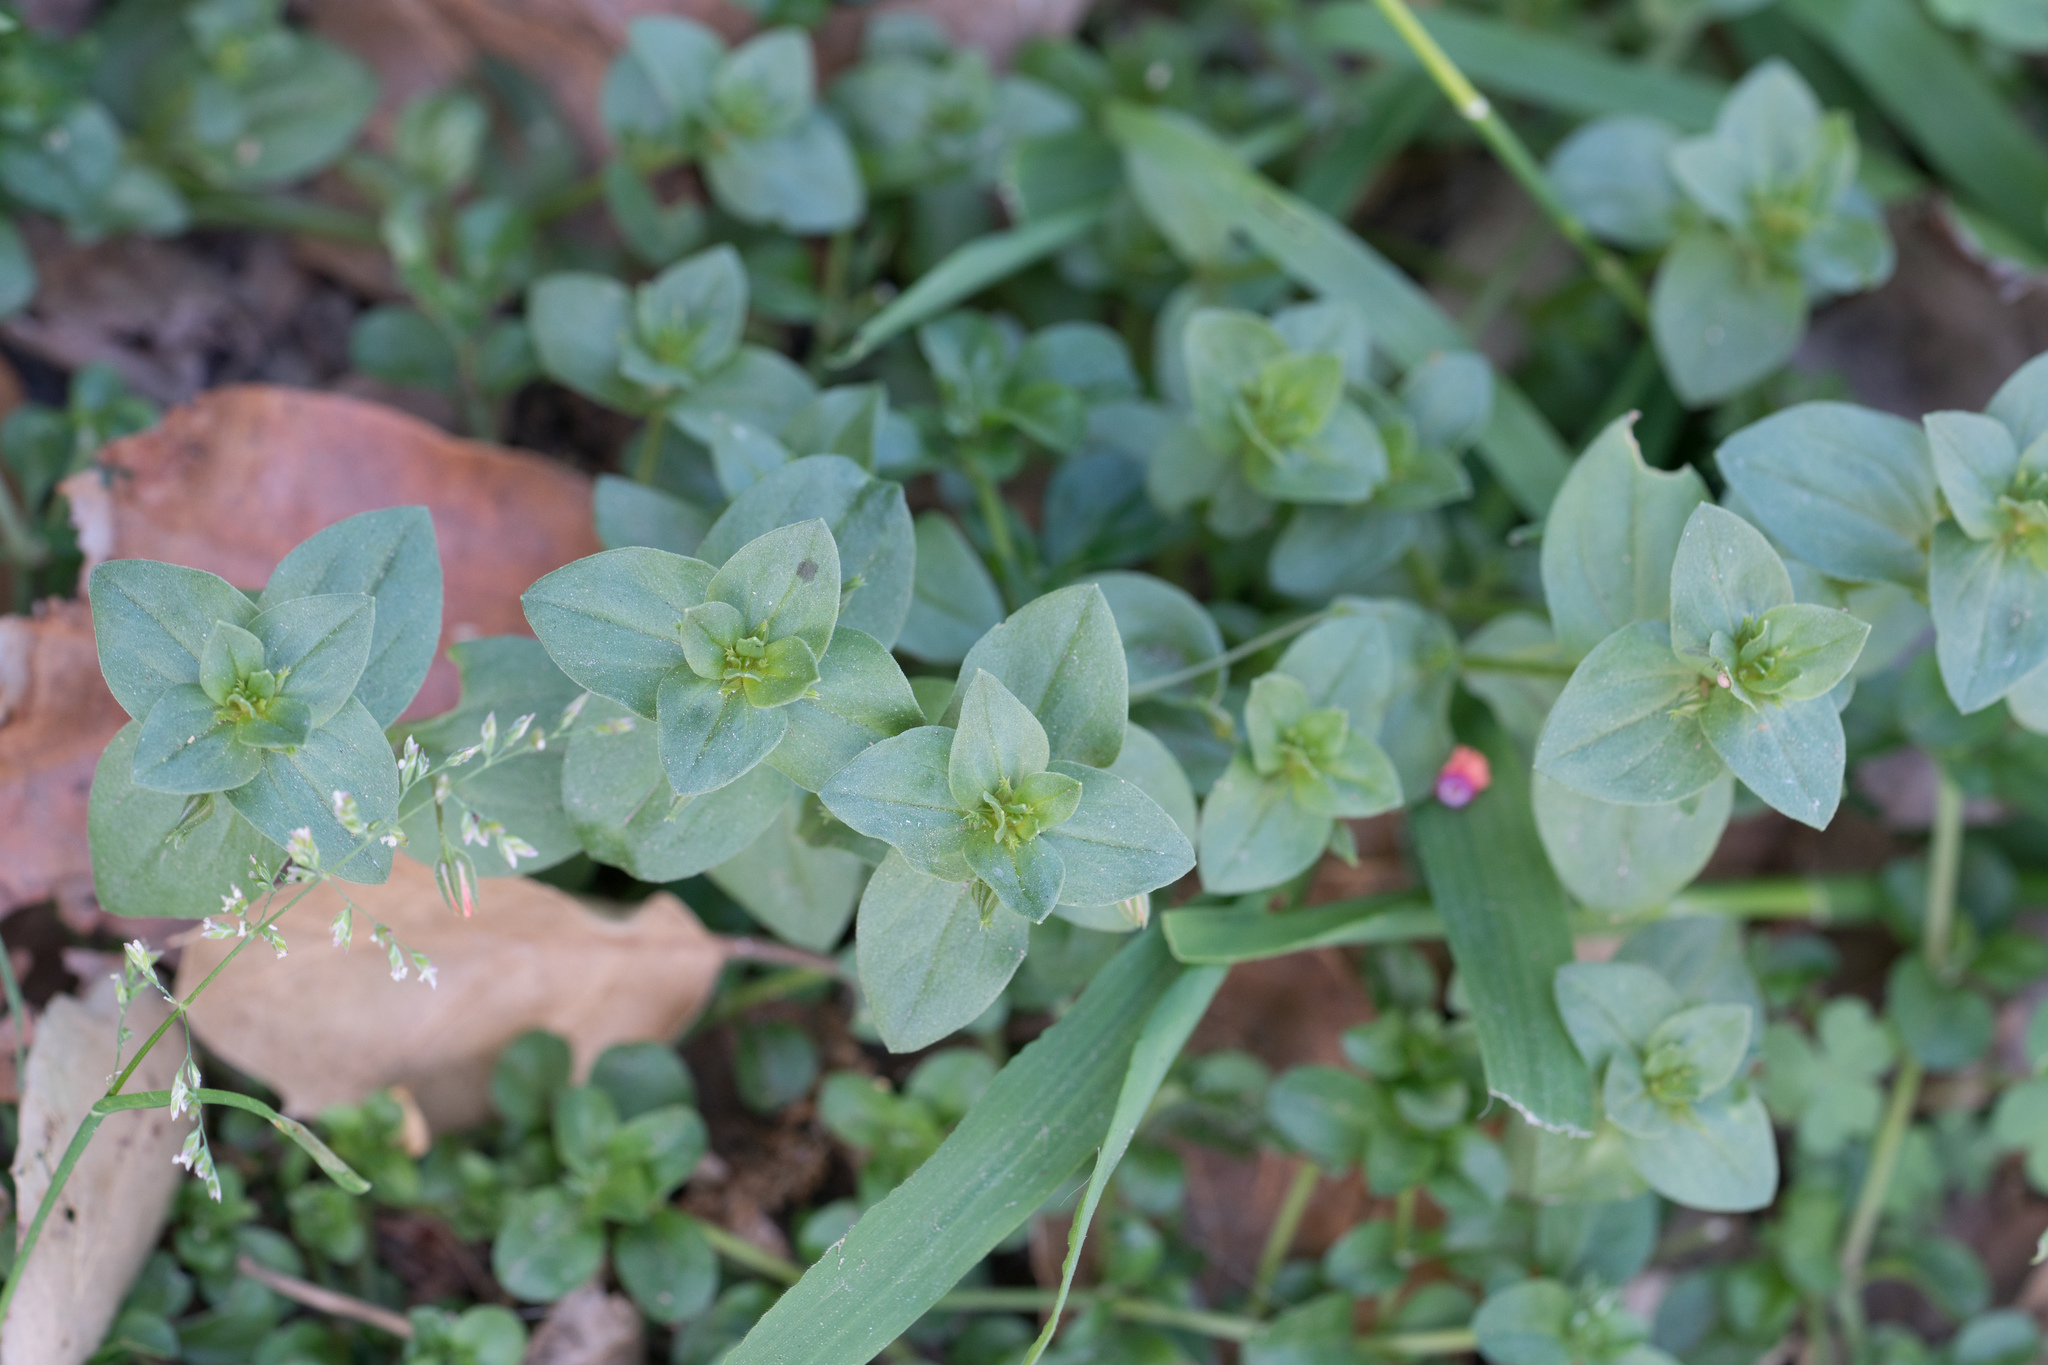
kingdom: Plantae
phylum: Tracheophyta
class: Magnoliopsida
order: Ericales
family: Primulaceae
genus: Lysimachia
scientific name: Lysimachia arvensis
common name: Scarlet pimpernel
